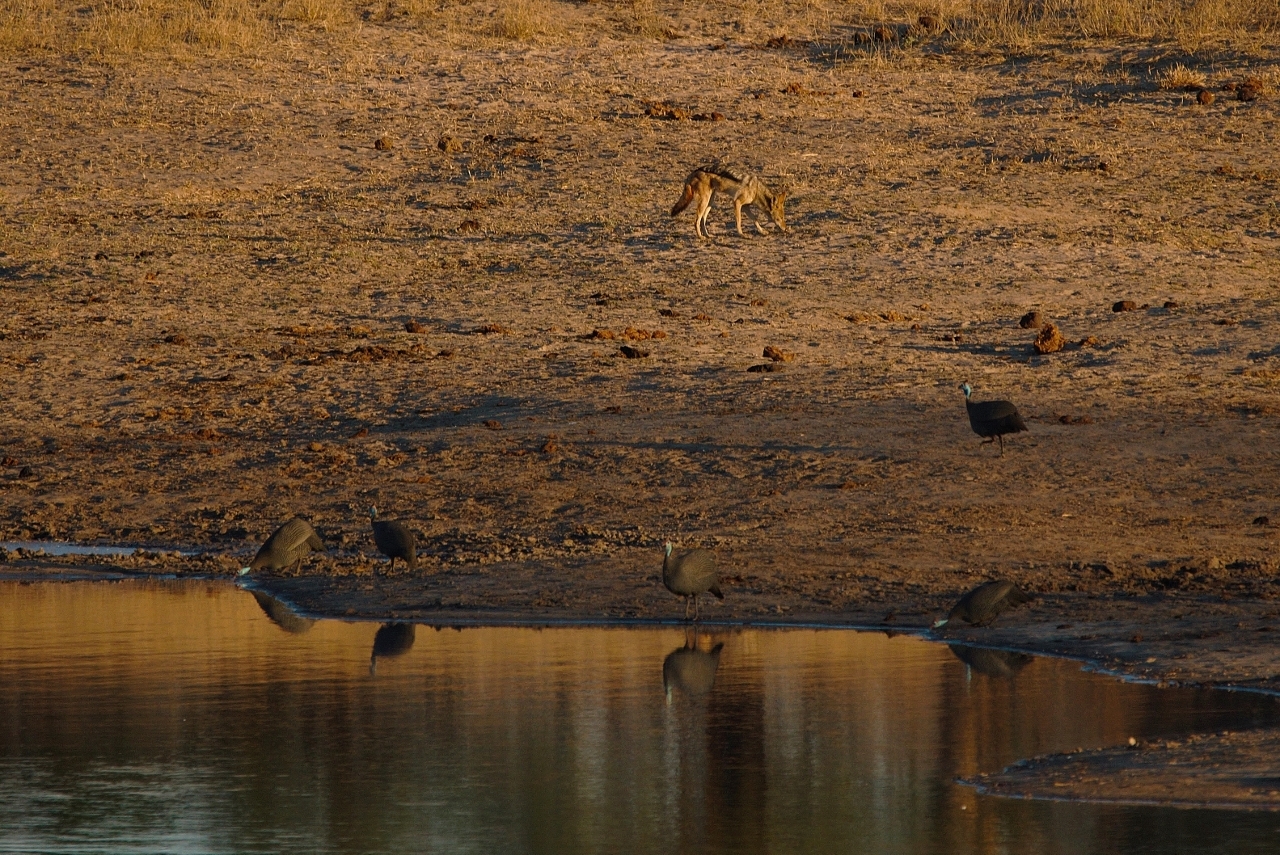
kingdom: Animalia
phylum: Chordata
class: Mammalia
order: Carnivora
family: Canidae
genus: Lupulella
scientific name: Lupulella
